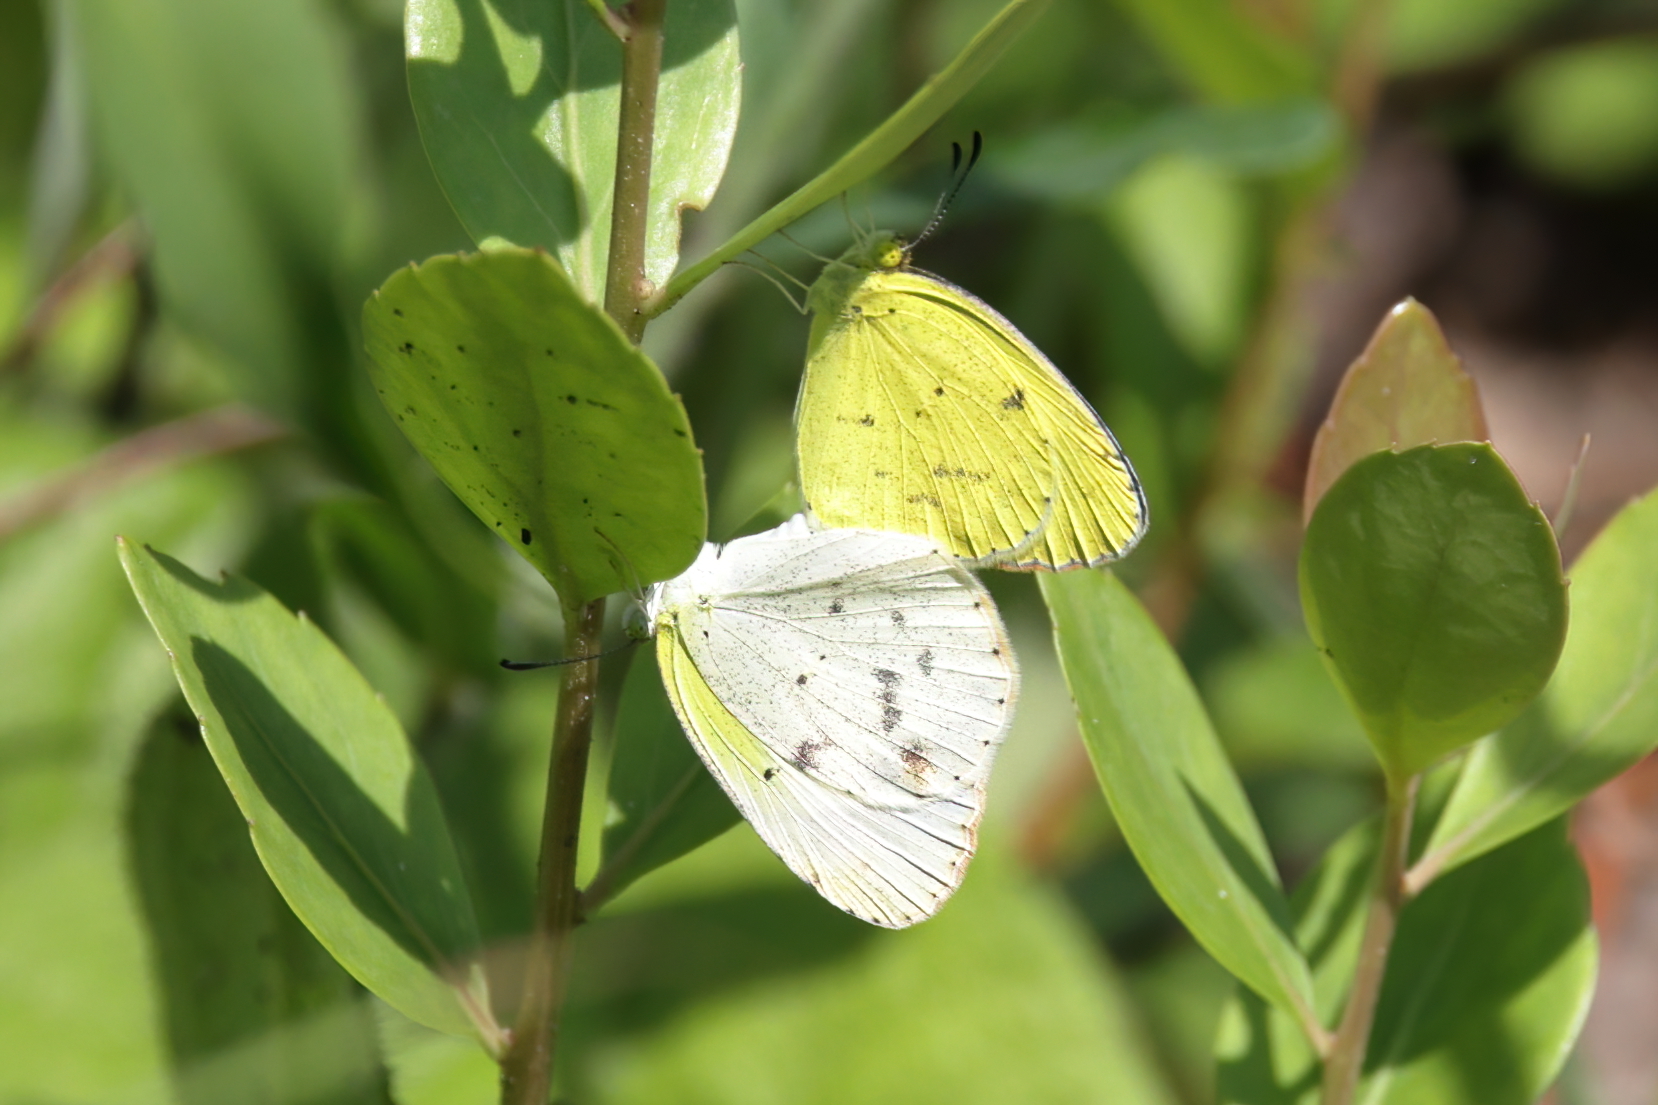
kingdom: Animalia
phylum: Arthropoda
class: Insecta
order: Lepidoptera
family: Pieridae
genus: Pyrisitia
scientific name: Pyrisitia lisa
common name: Little yellow
